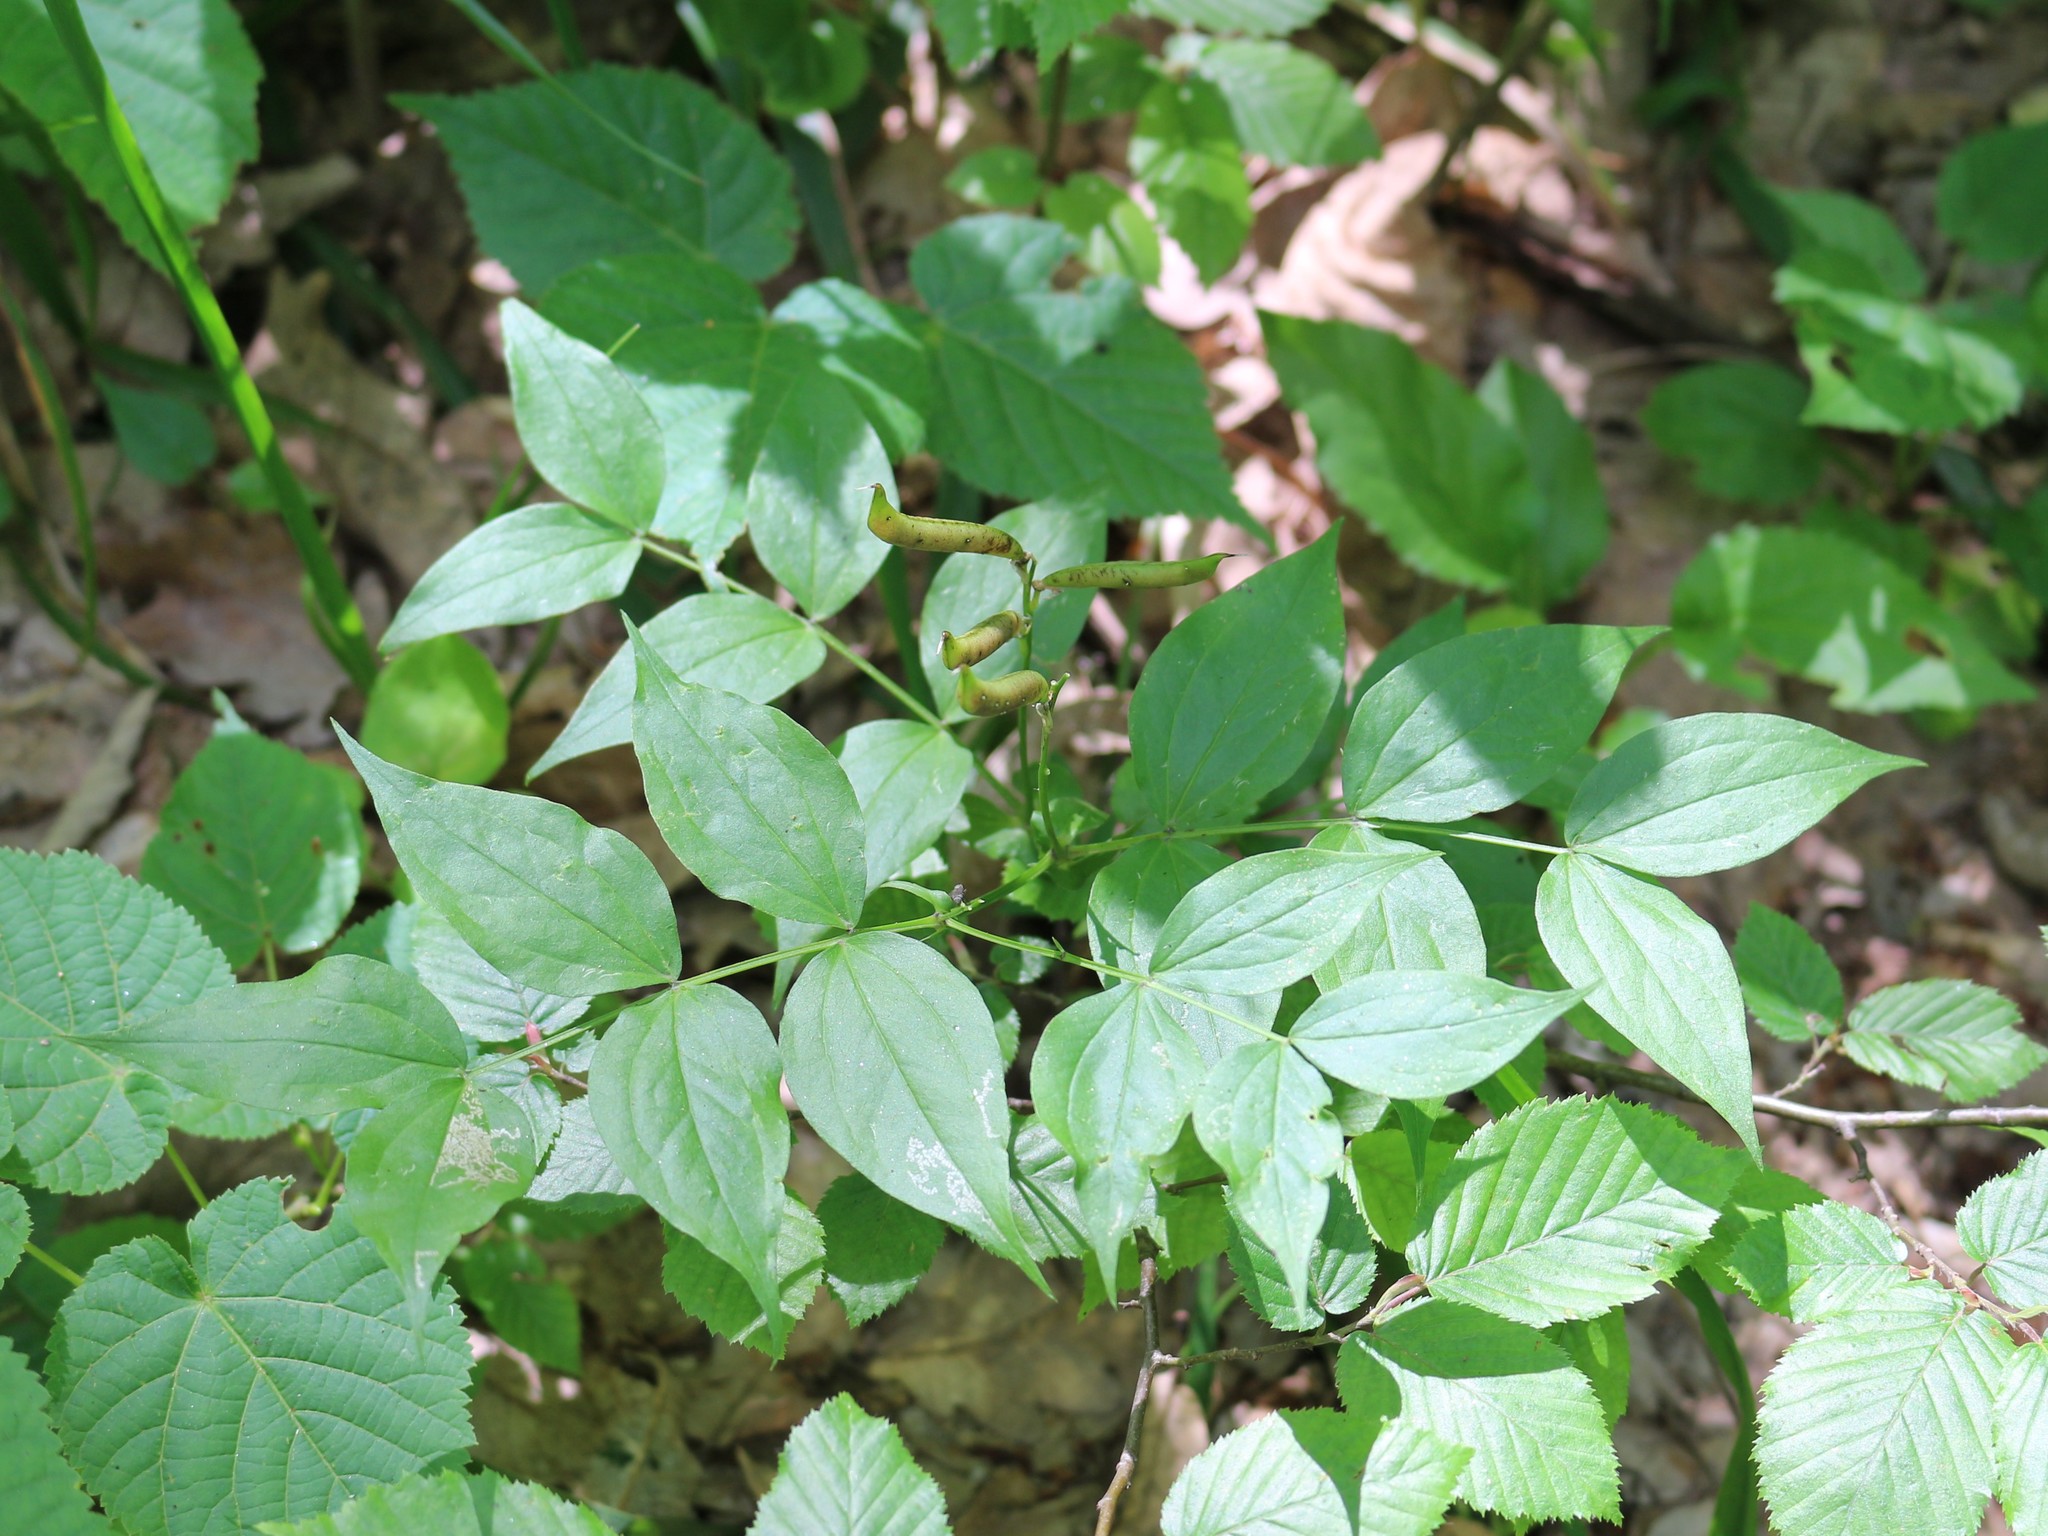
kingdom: Plantae
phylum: Tracheophyta
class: Magnoliopsida
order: Fabales
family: Fabaceae
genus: Lathyrus
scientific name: Lathyrus vernus
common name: Spring pea
